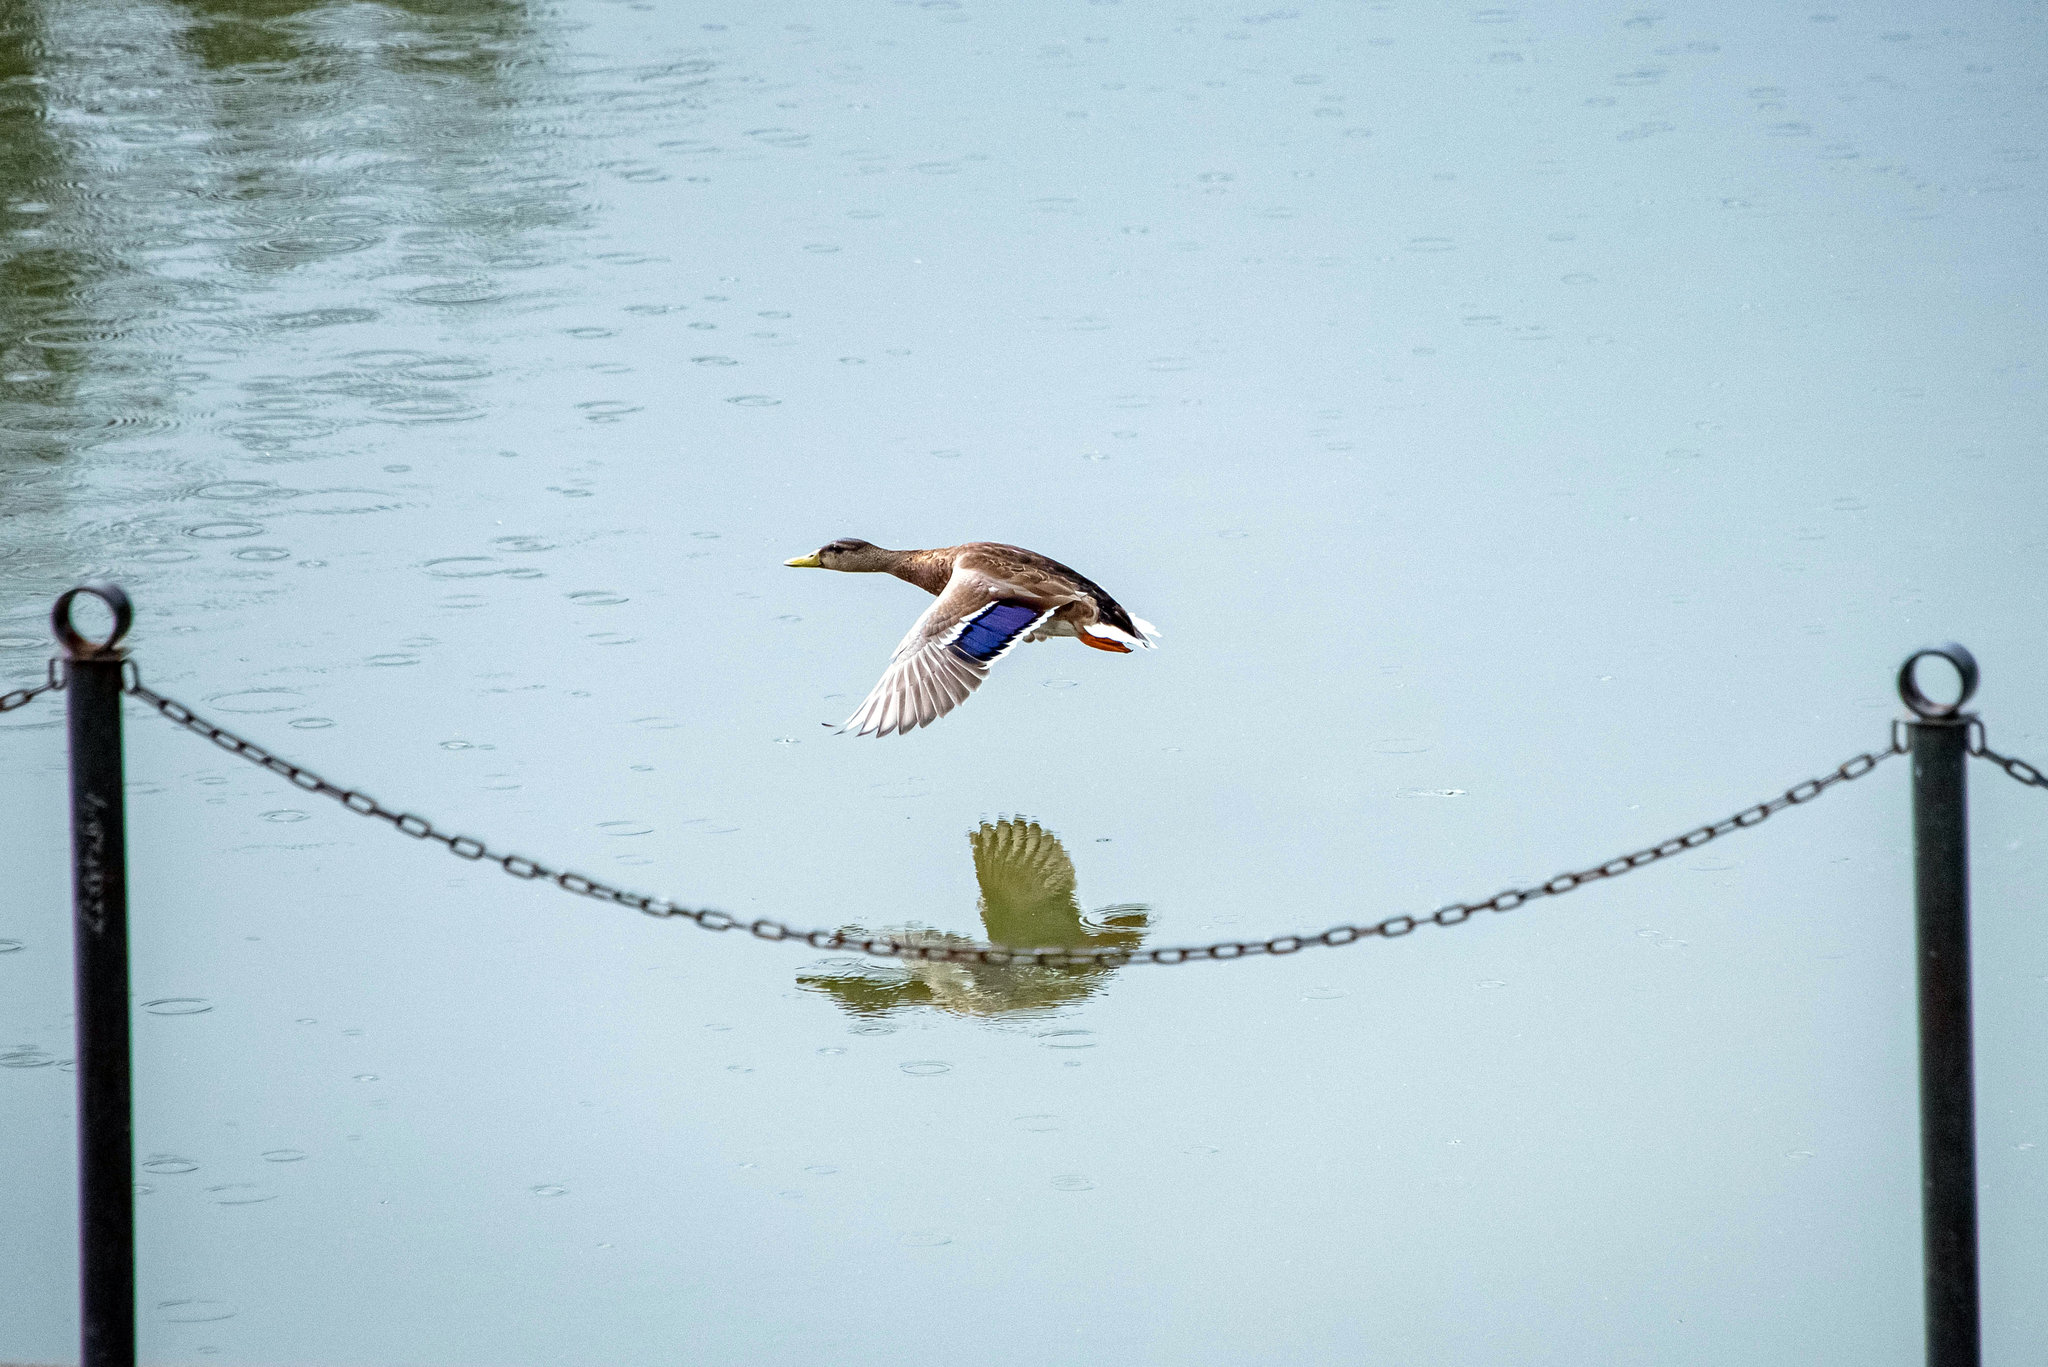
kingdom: Animalia
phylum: Chordata
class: Aves
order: Anseriformes
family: Anatidae
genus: Anas
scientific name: Anas platyrhynchos
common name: Mallard
